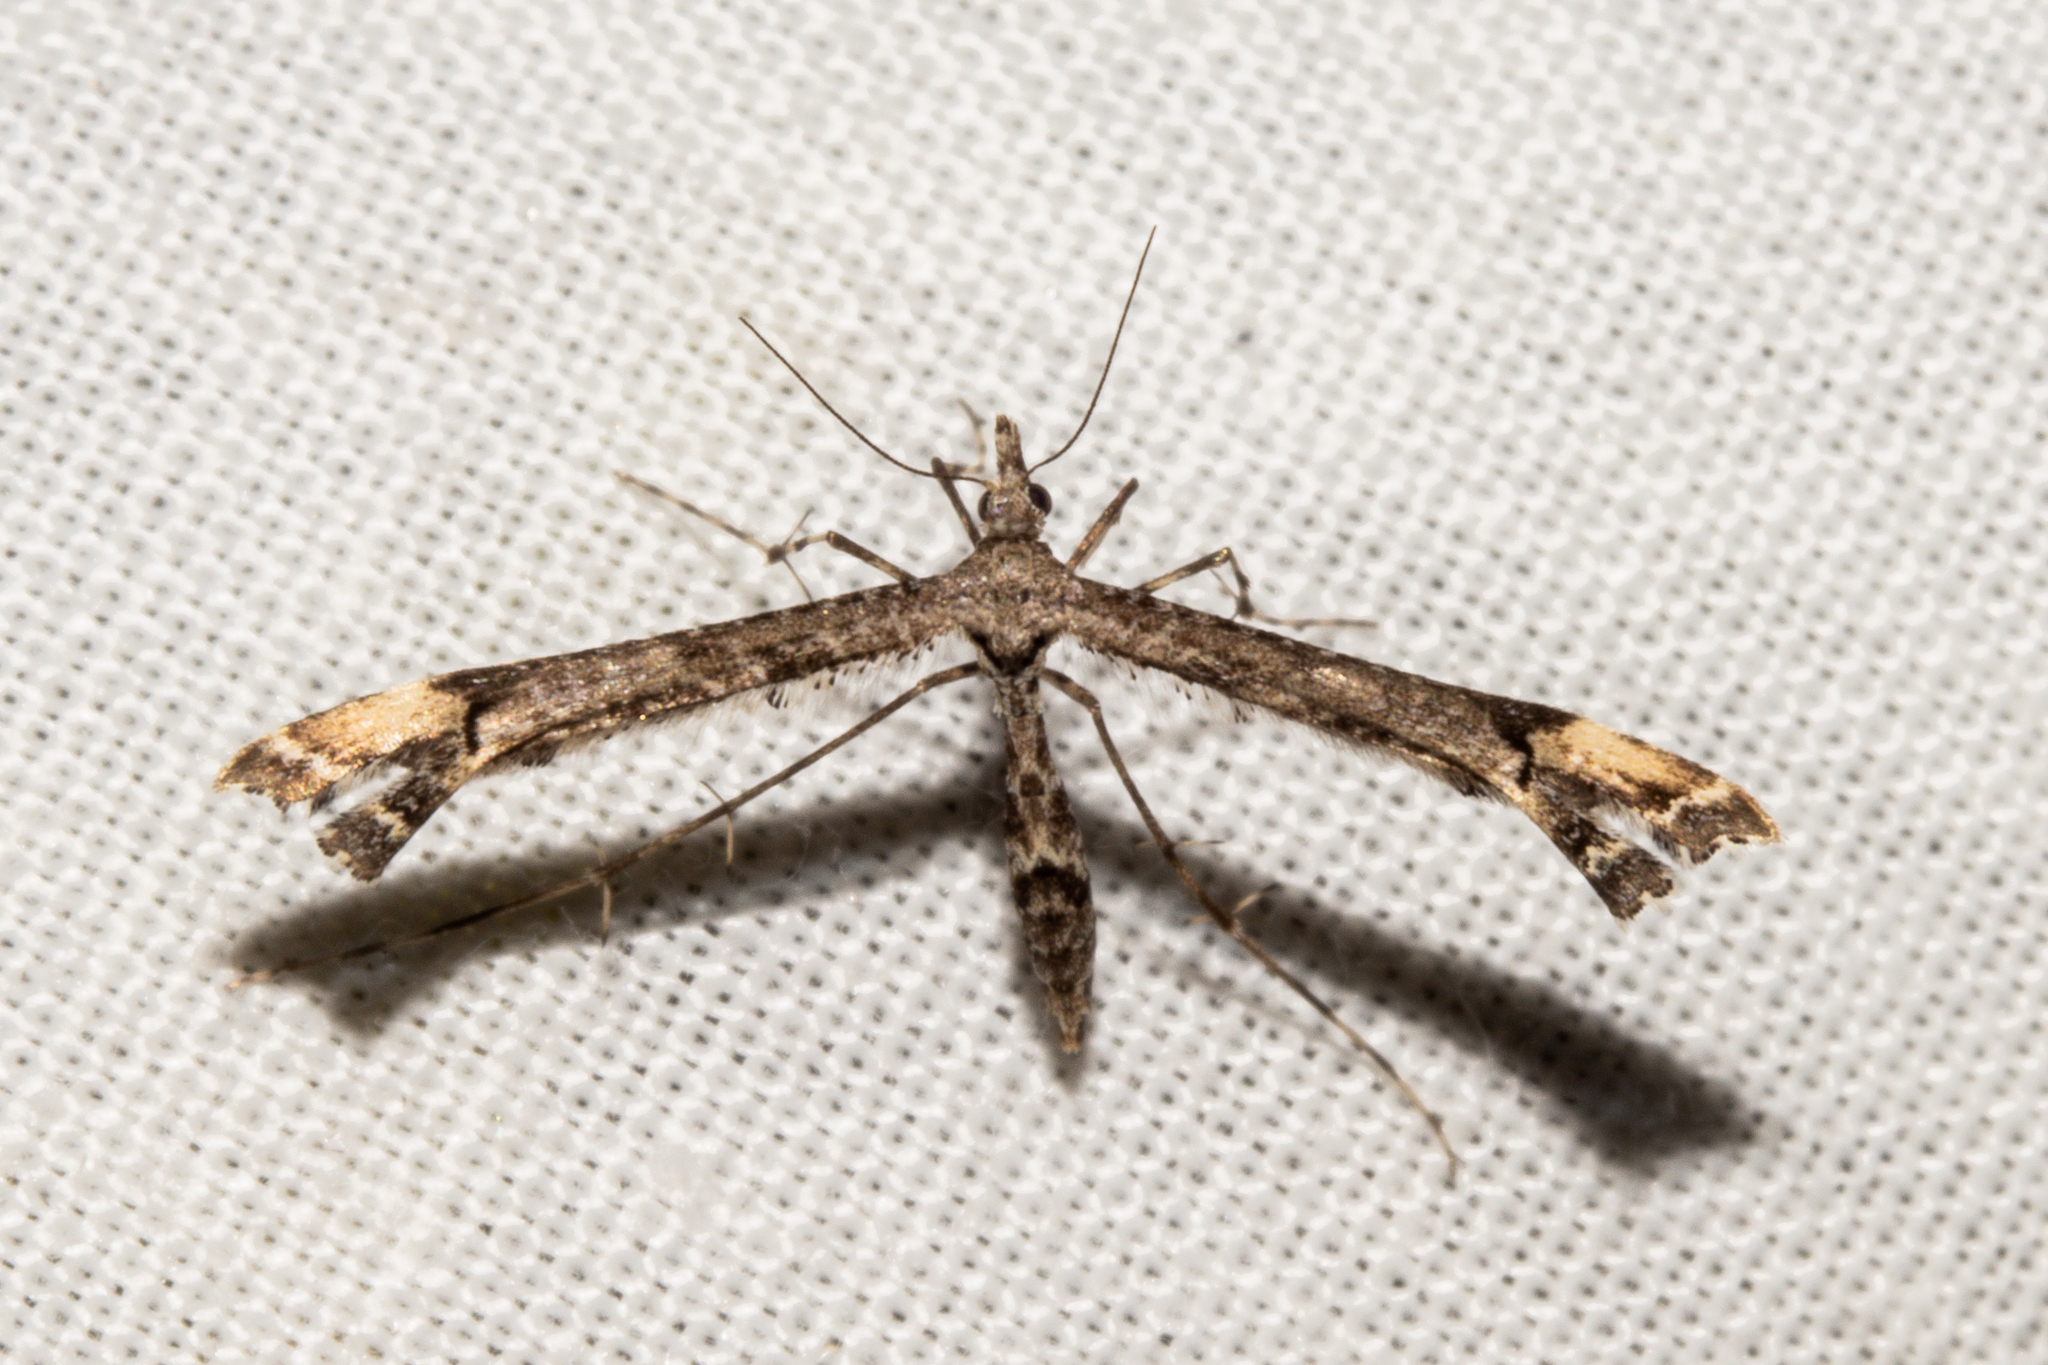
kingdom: Animalia
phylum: Arthropoda
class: Insecta
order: Lepidoptera
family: Pterophoridae
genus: Amblyptilia
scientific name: Amblyptilia repletalis
